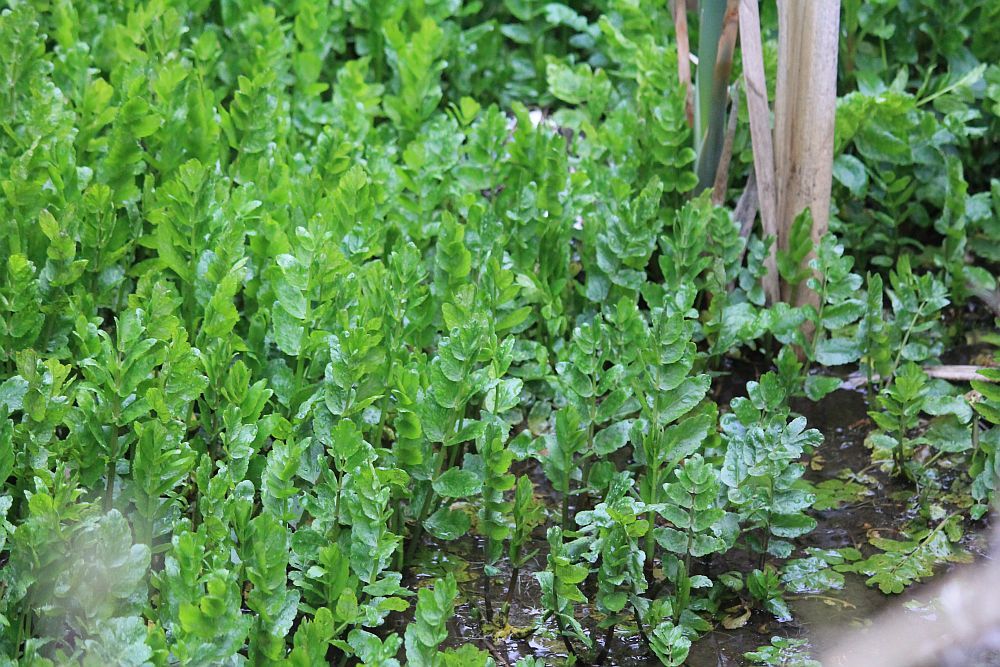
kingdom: Plantae
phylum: Tracheophyta
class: Magnoliopsida
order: Apiales
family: Apiaceae
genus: Helosciadium
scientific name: Helosciadium nodiflorum
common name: Fool's-watercress
